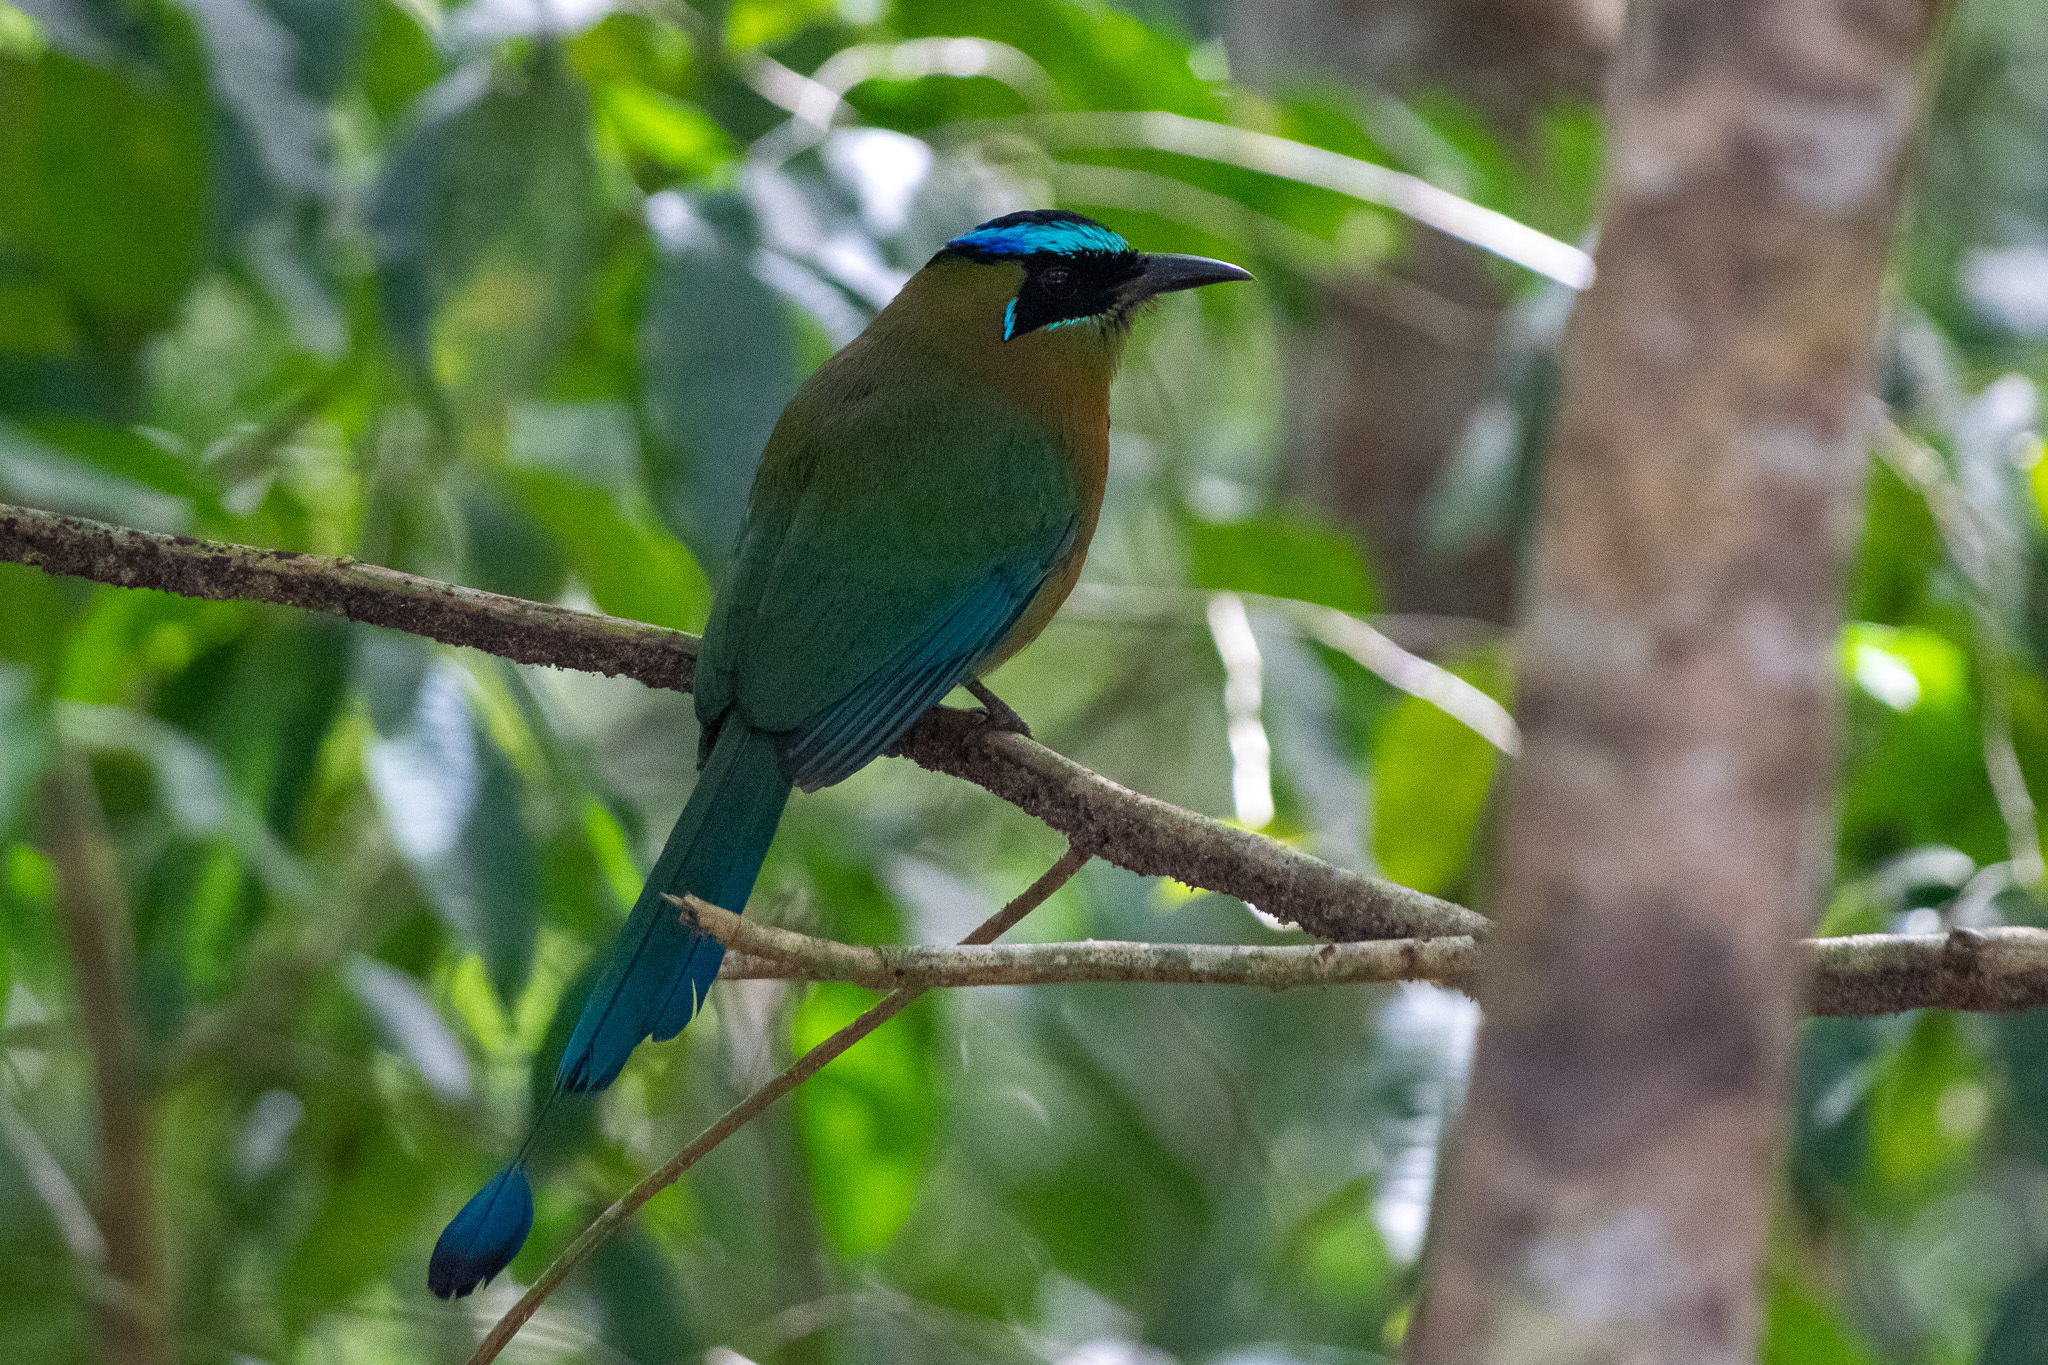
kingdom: Animalia
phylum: Chordata
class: Aves
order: Coraciiformes
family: Momotidae
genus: Momotus
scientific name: Momotus lessonii
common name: Lesson's motmot
